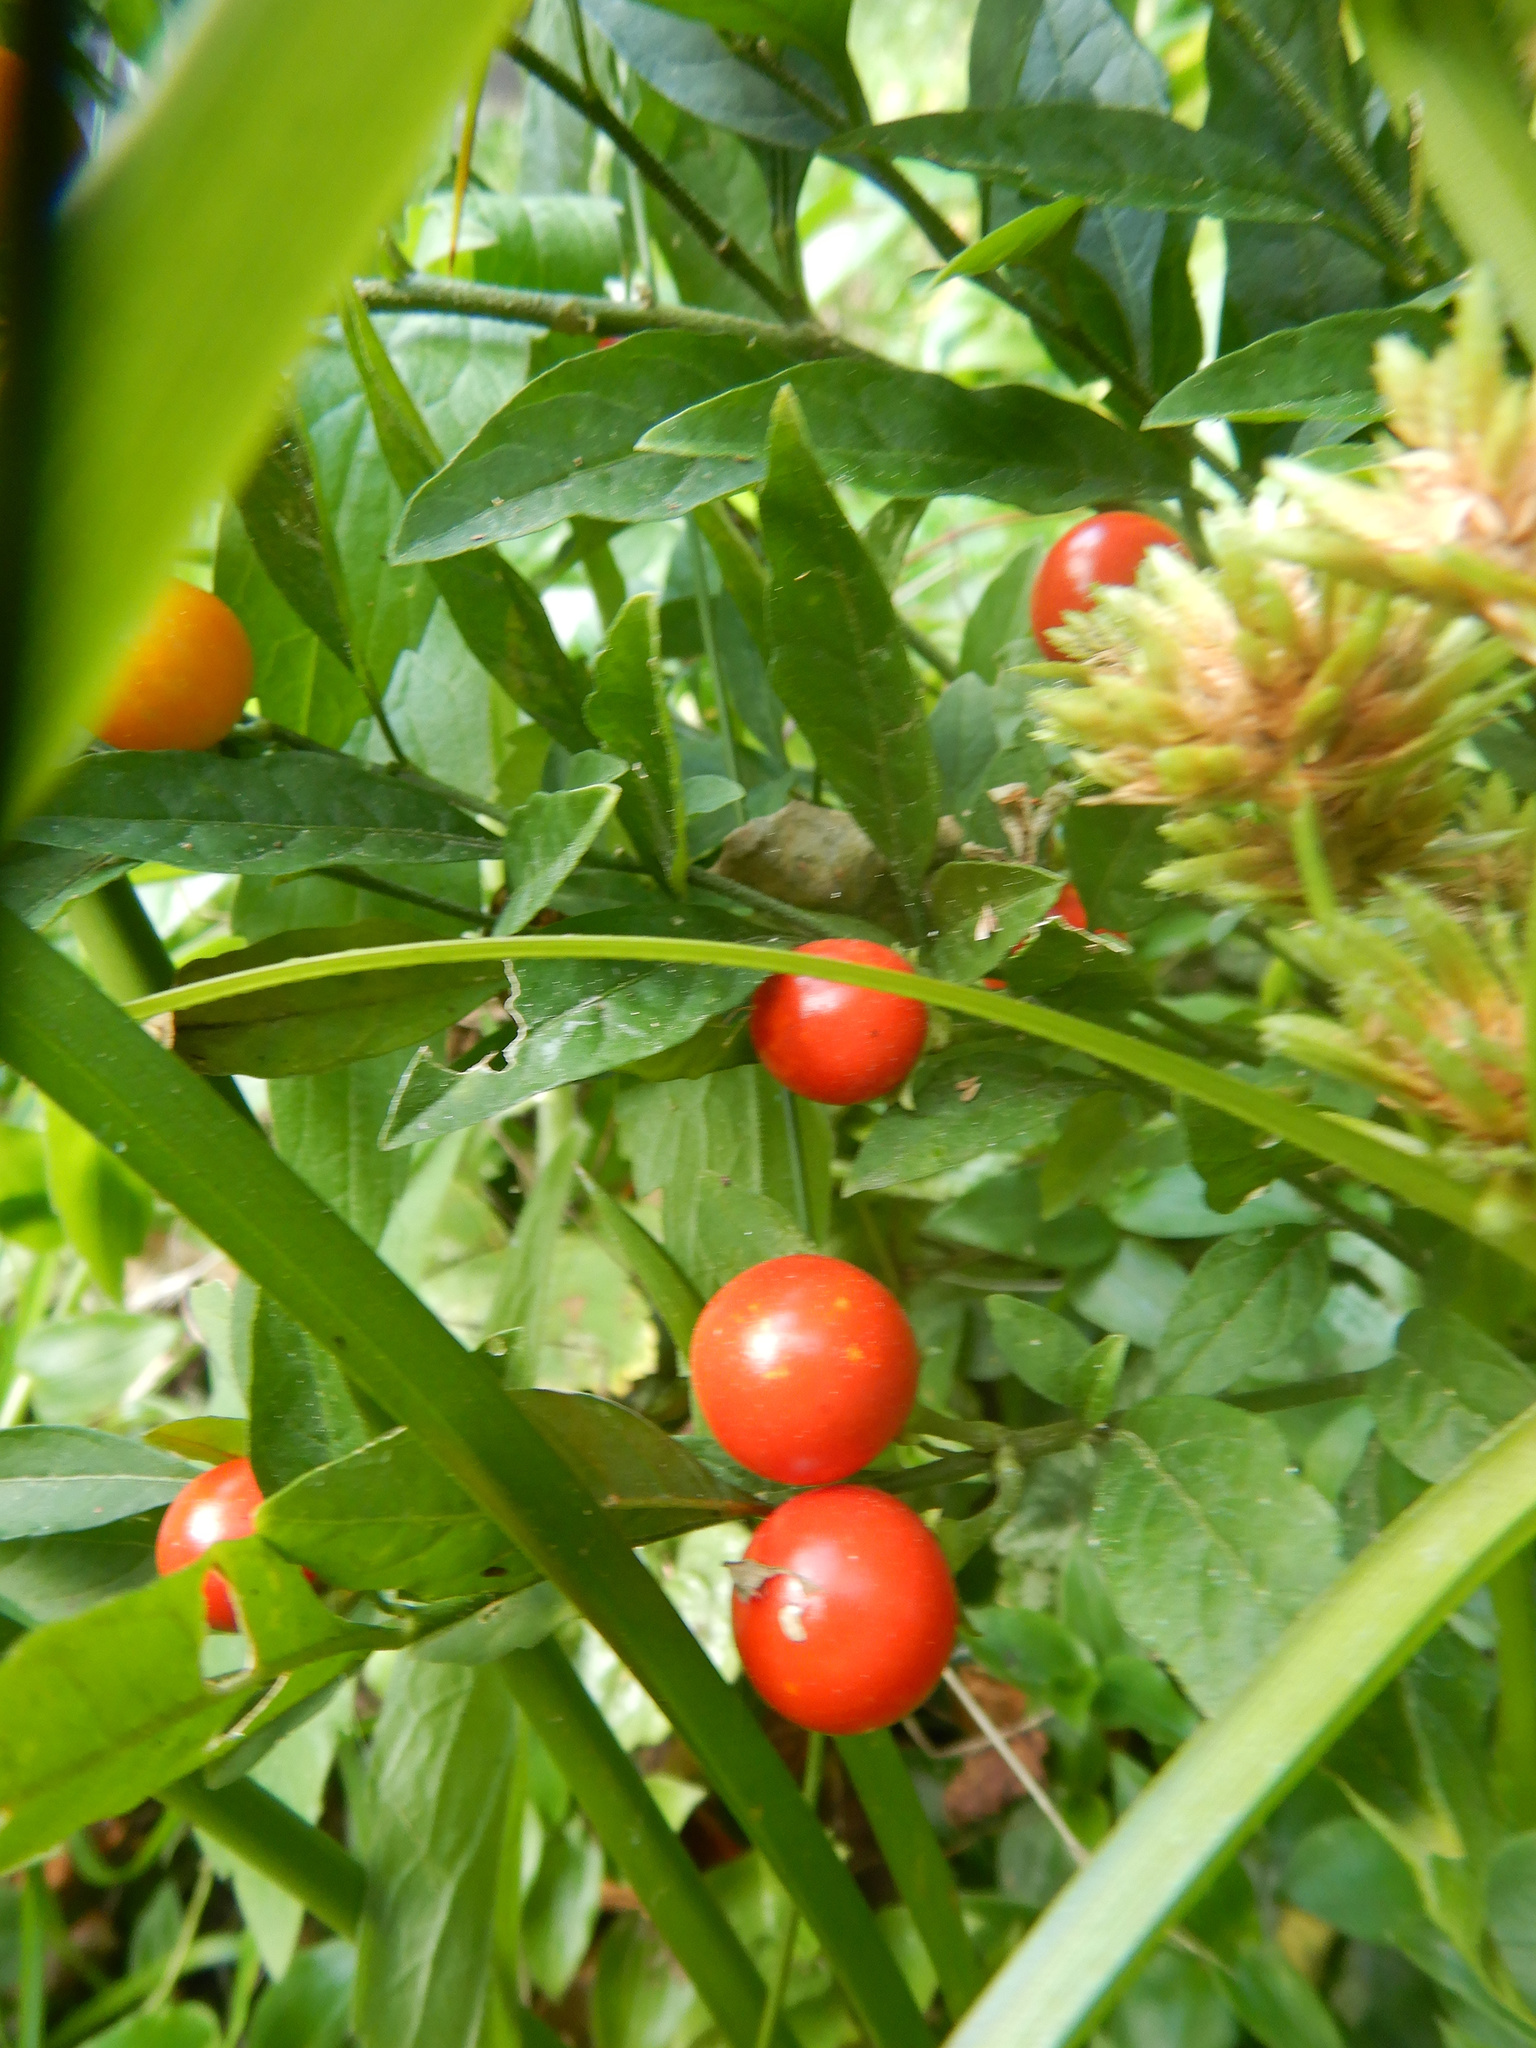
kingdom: Plantae
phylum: Tracheophyta
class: Magnoliopsida
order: Solanales
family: Solanaceae
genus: Solanum
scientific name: Solanum pseudocapsicum
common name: Jerusalem cherry
